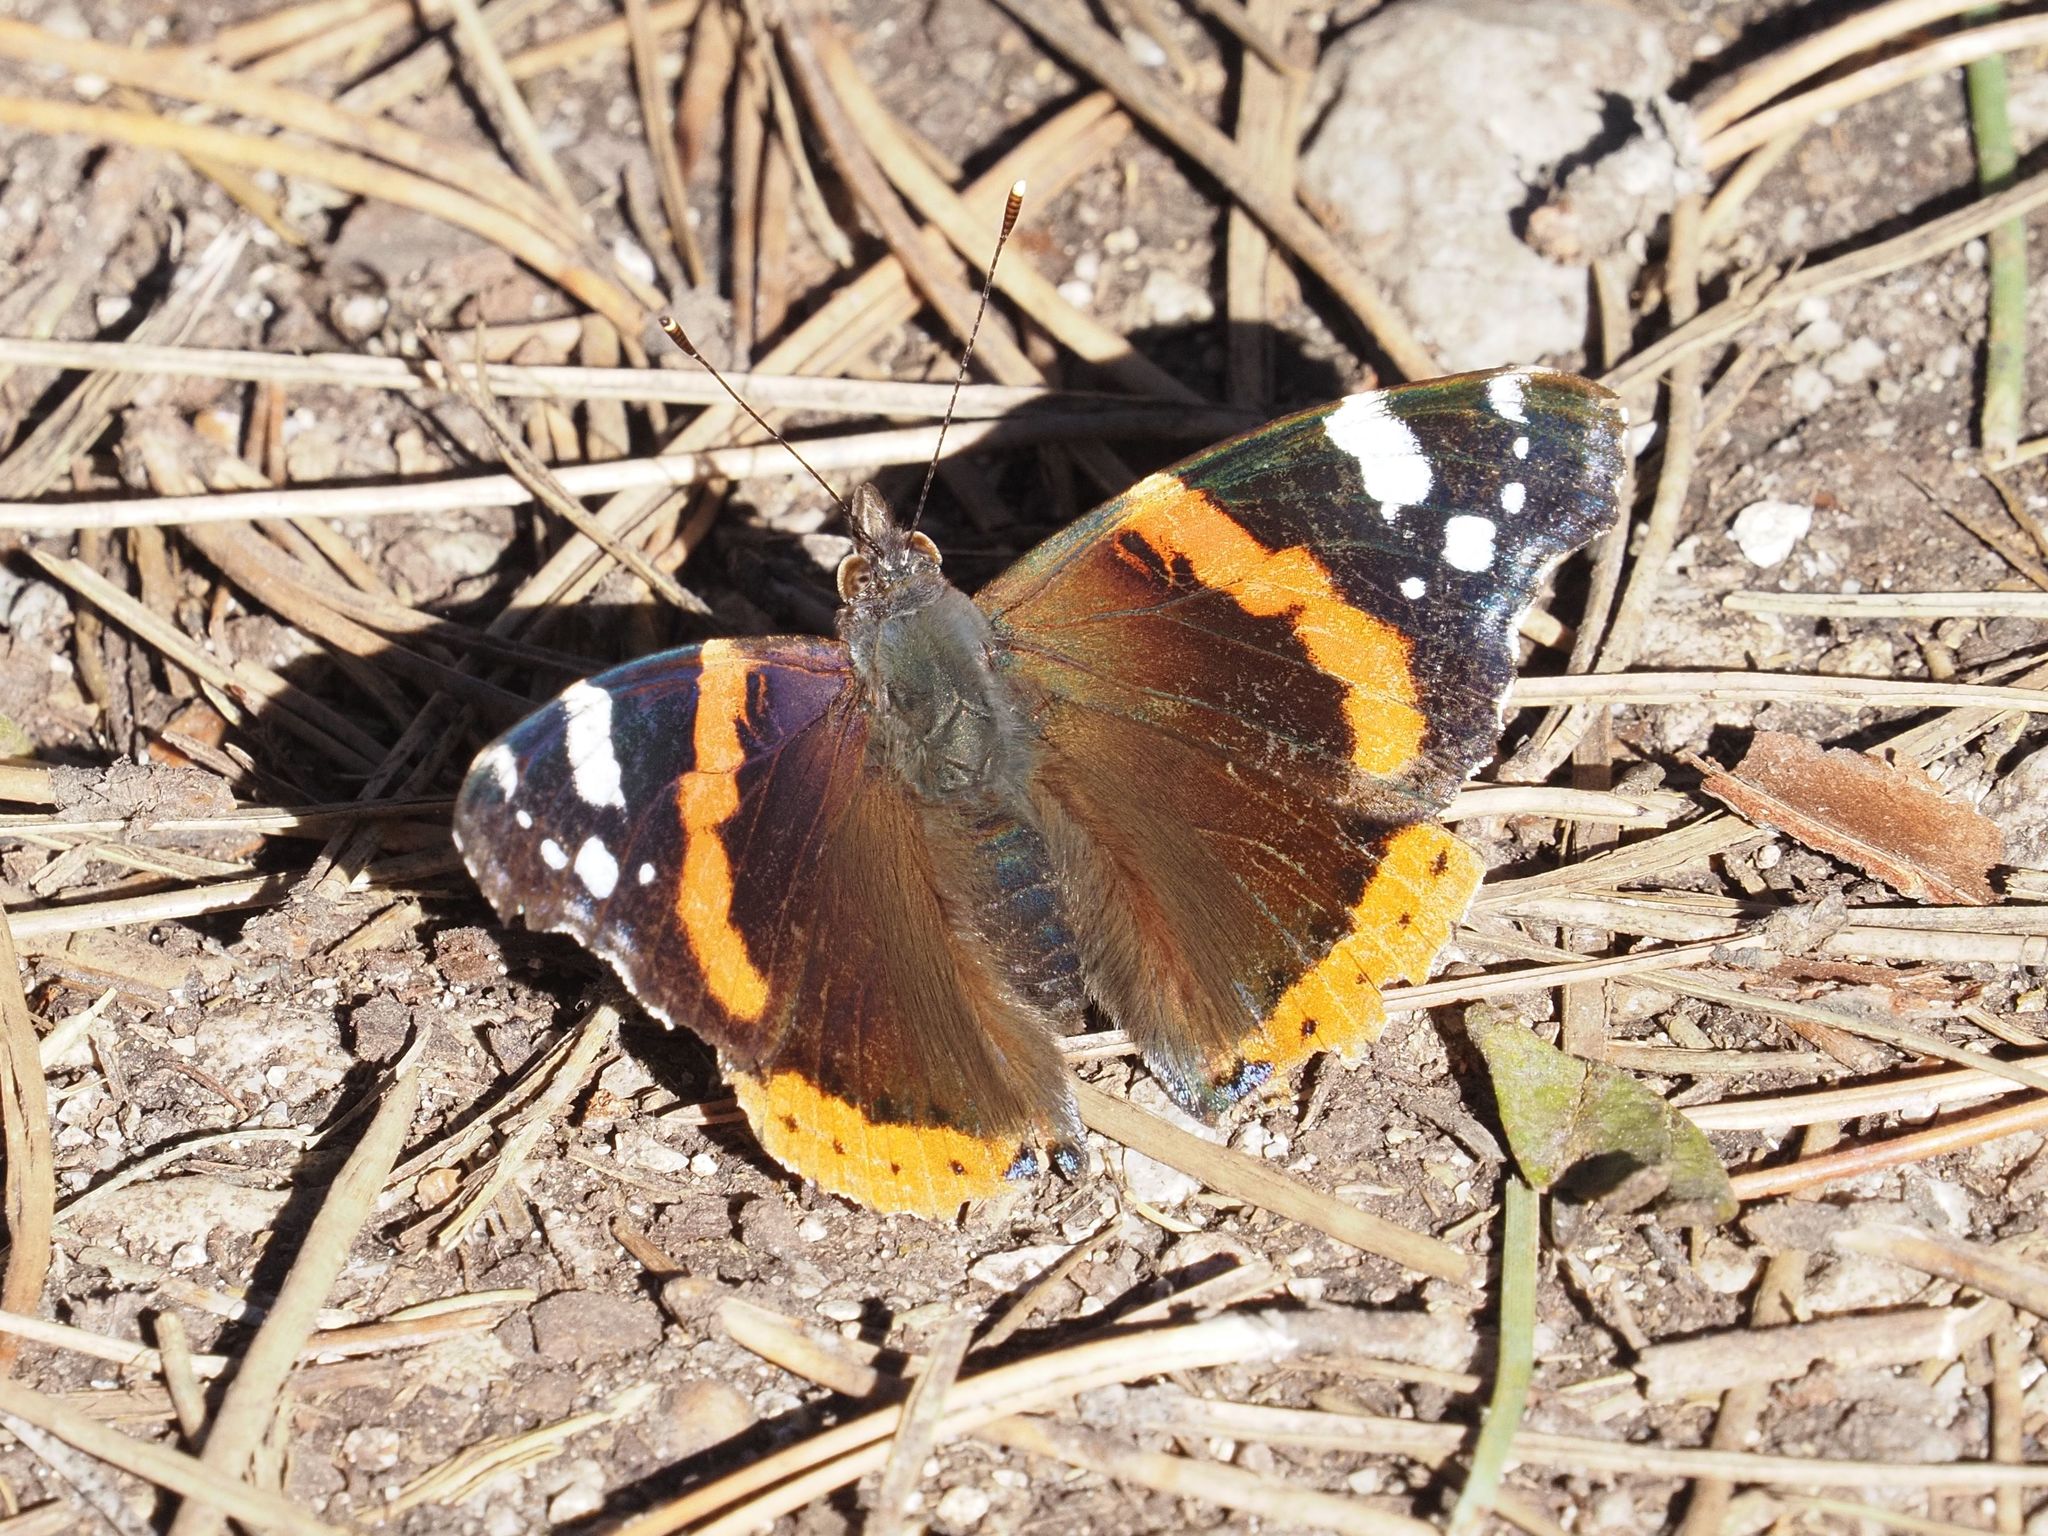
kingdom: Animalia
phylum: Arthropoda
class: Insecta
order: Lepidoptera
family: Nymphalidae
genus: Vanessa
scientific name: Vanessa atalanta
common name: Red admiral
